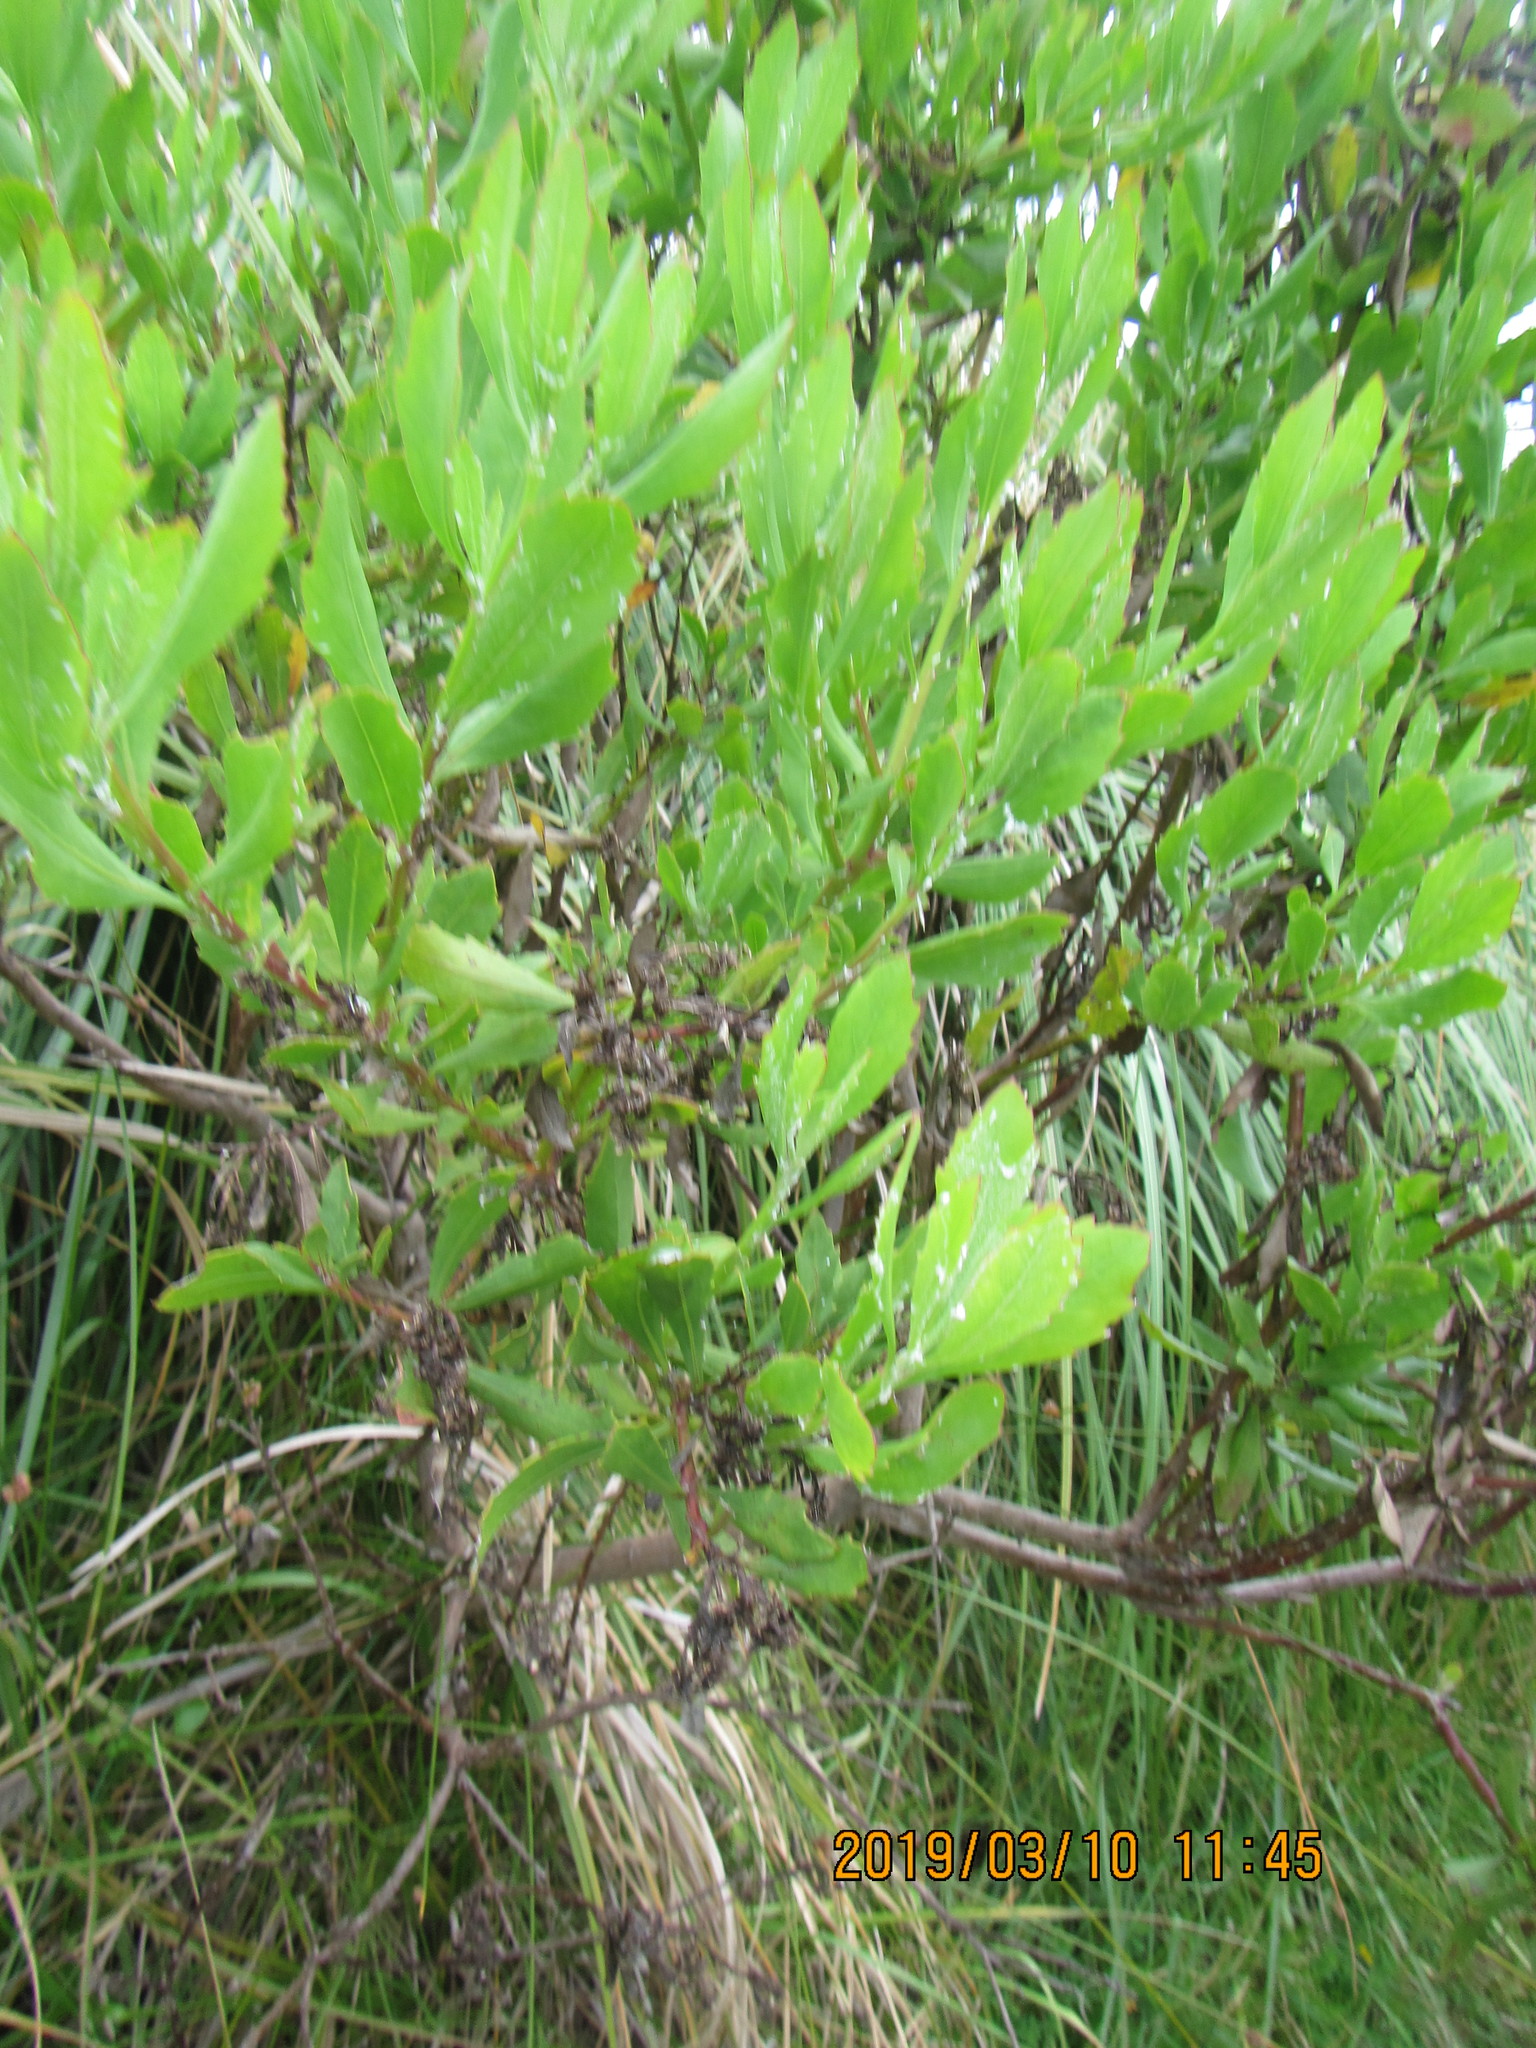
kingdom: Plantae
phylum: Tracheophyta
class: Magnoliopsida
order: Asterales
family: Asteraceae
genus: Osteospermum
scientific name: Osteospermum moniliferum
